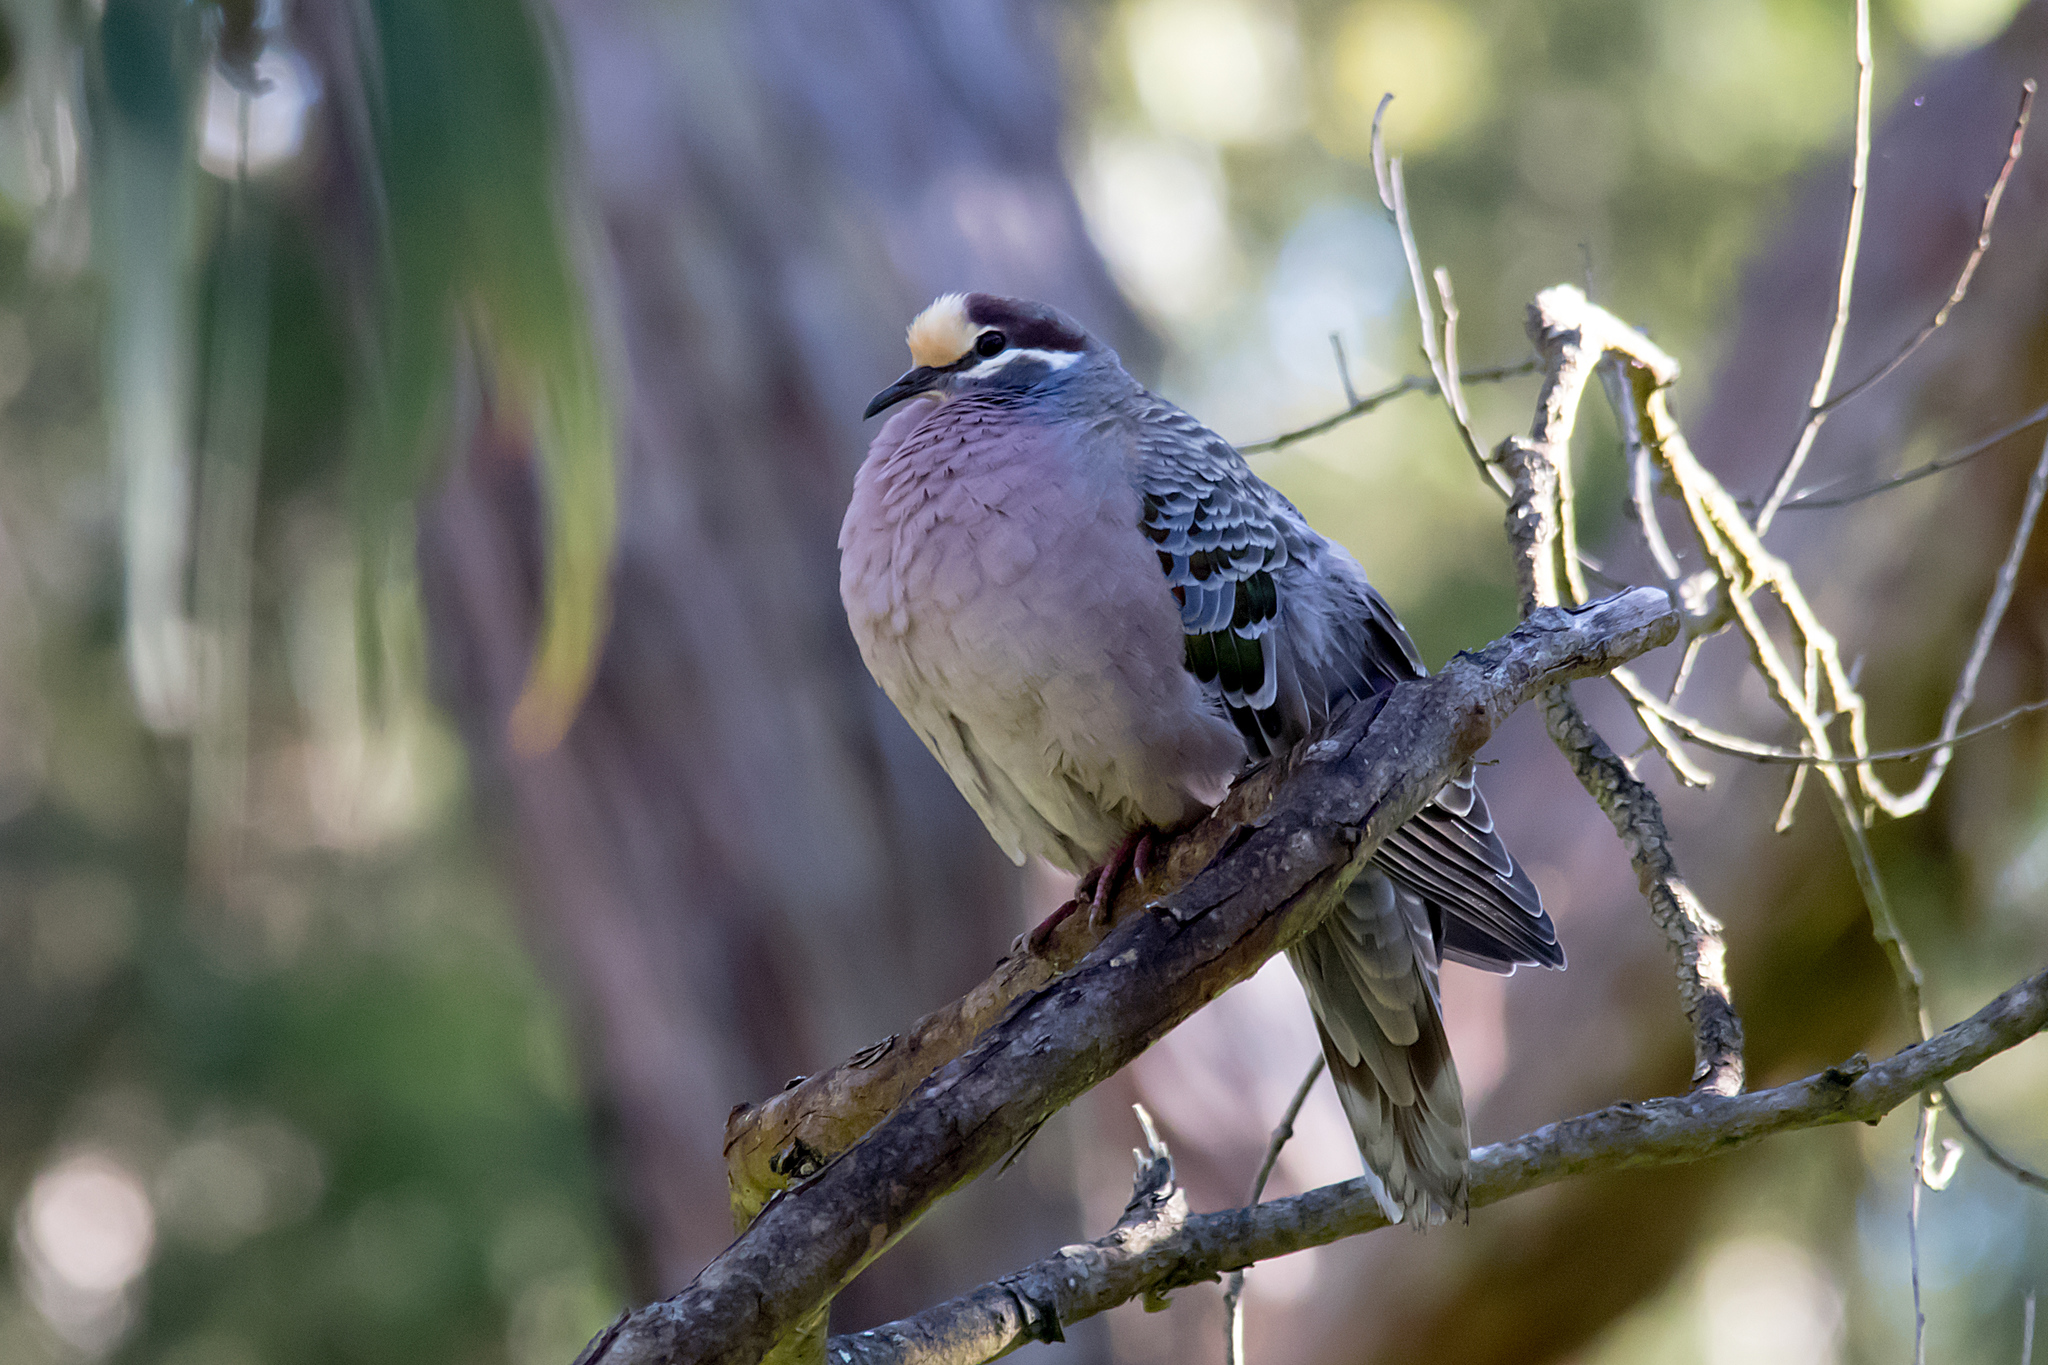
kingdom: Animalia
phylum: Chordata
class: Aves
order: Columbiformes
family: Columbidae
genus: Phaps
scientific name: Phaps chalcoptera
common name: Common bronzewing
